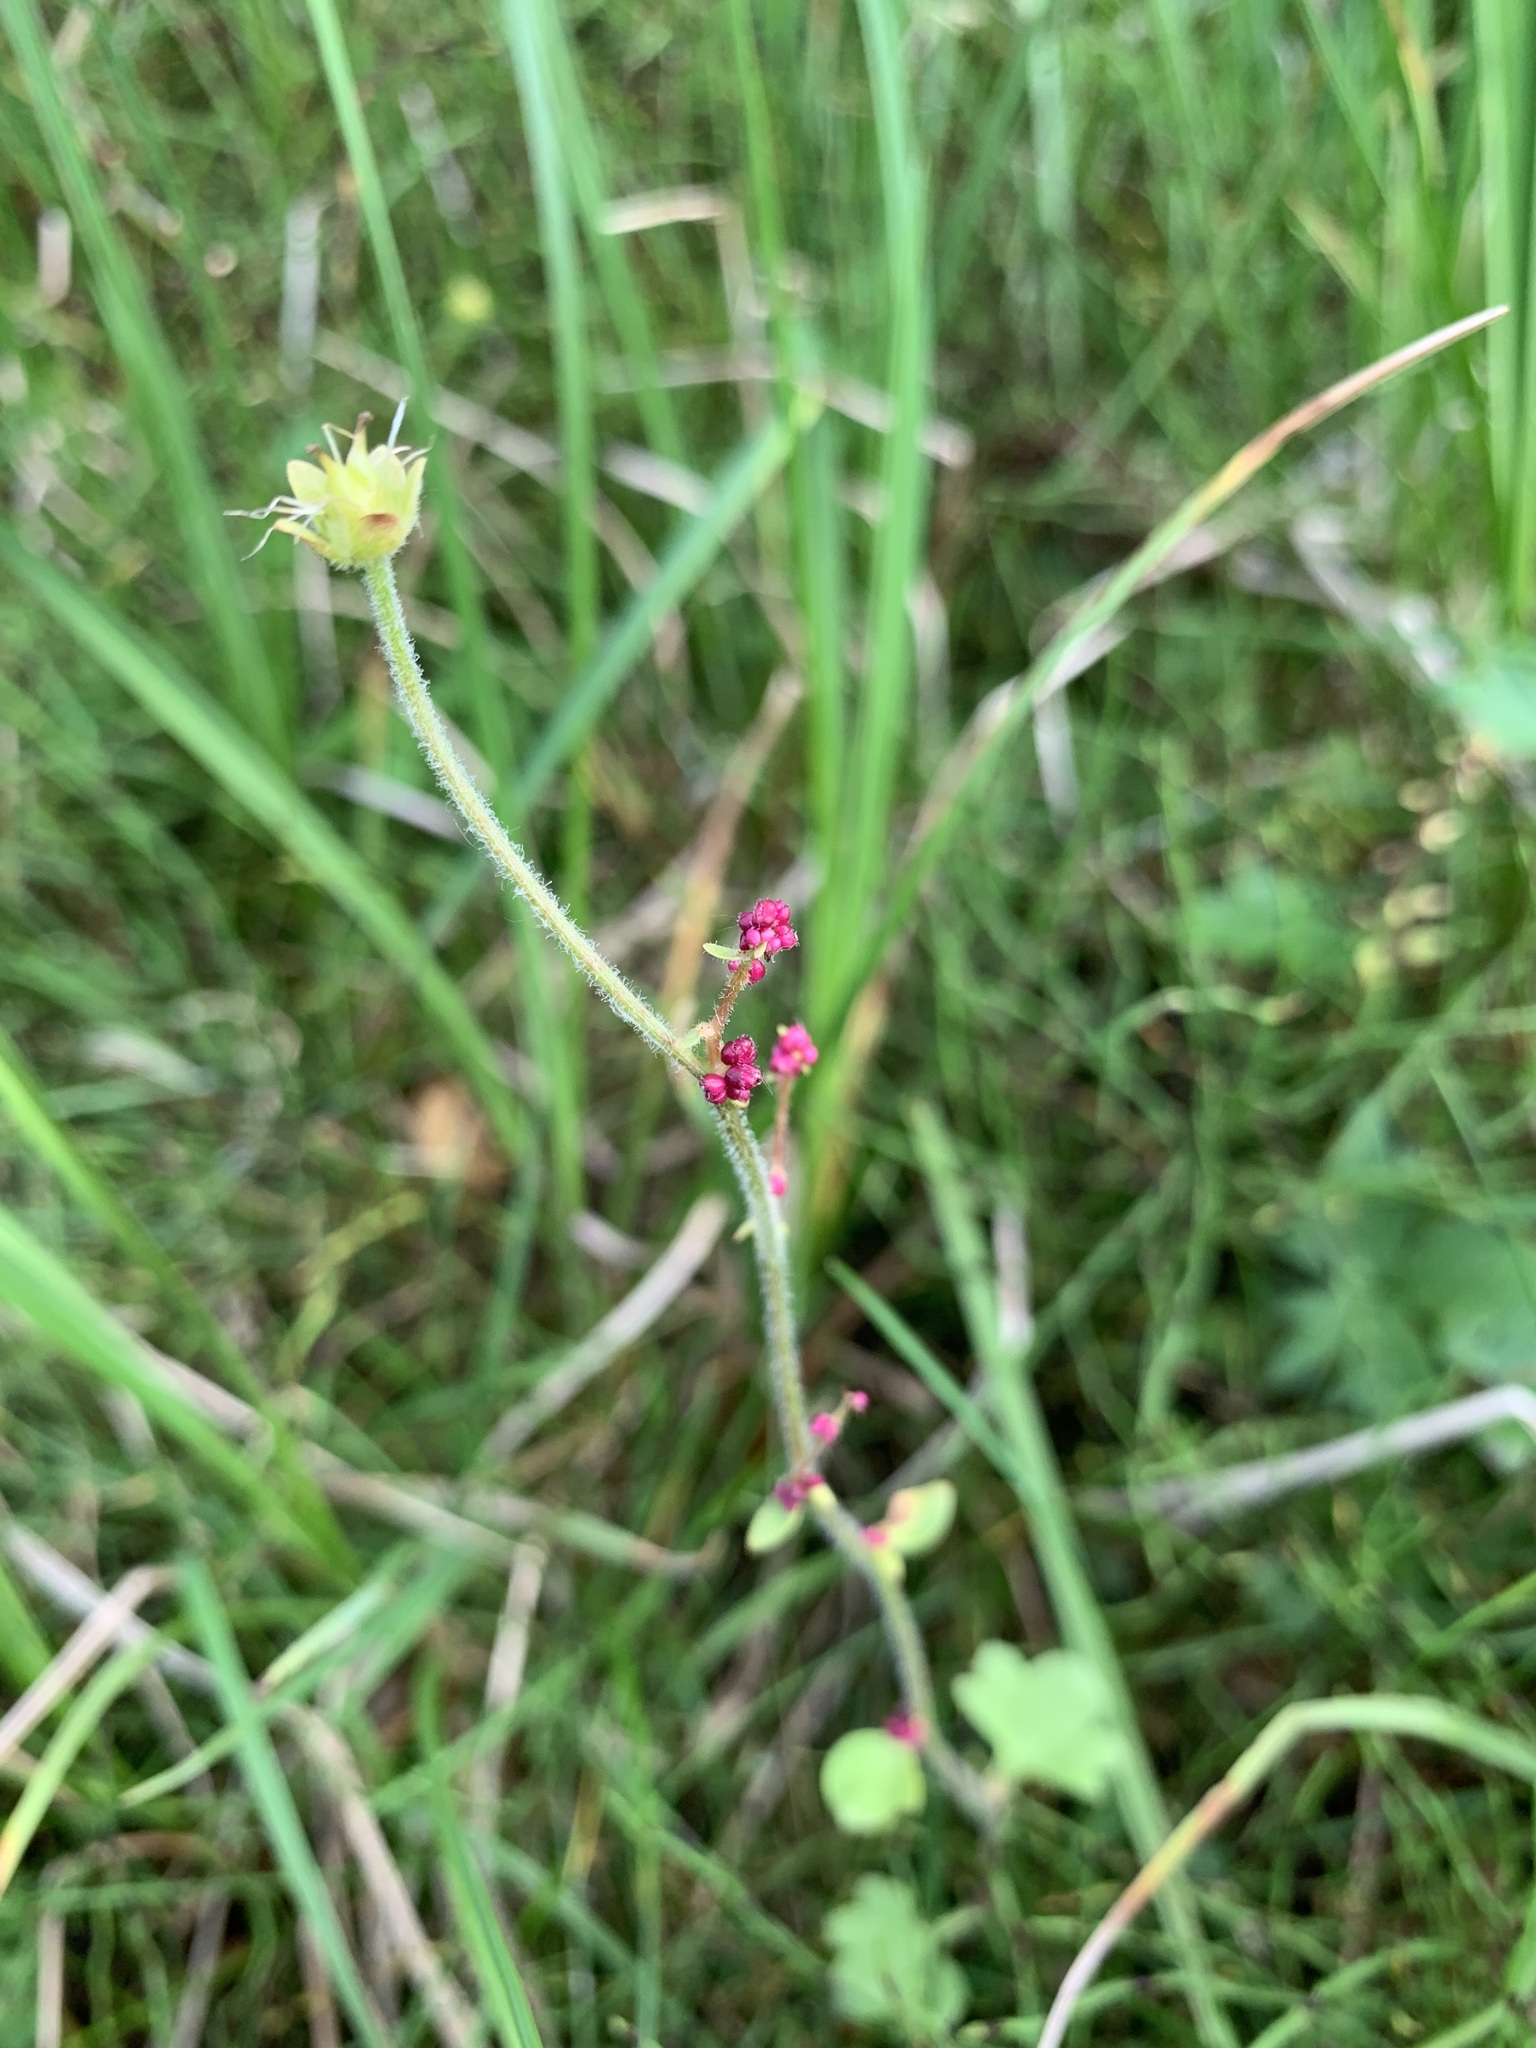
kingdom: Plantae
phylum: Tracheophyta
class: Magnoliopsida
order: Saxifragales
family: Saxifragaceae
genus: Saxifraga
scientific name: Saxifraga cernua
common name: Drooping saxifrage
